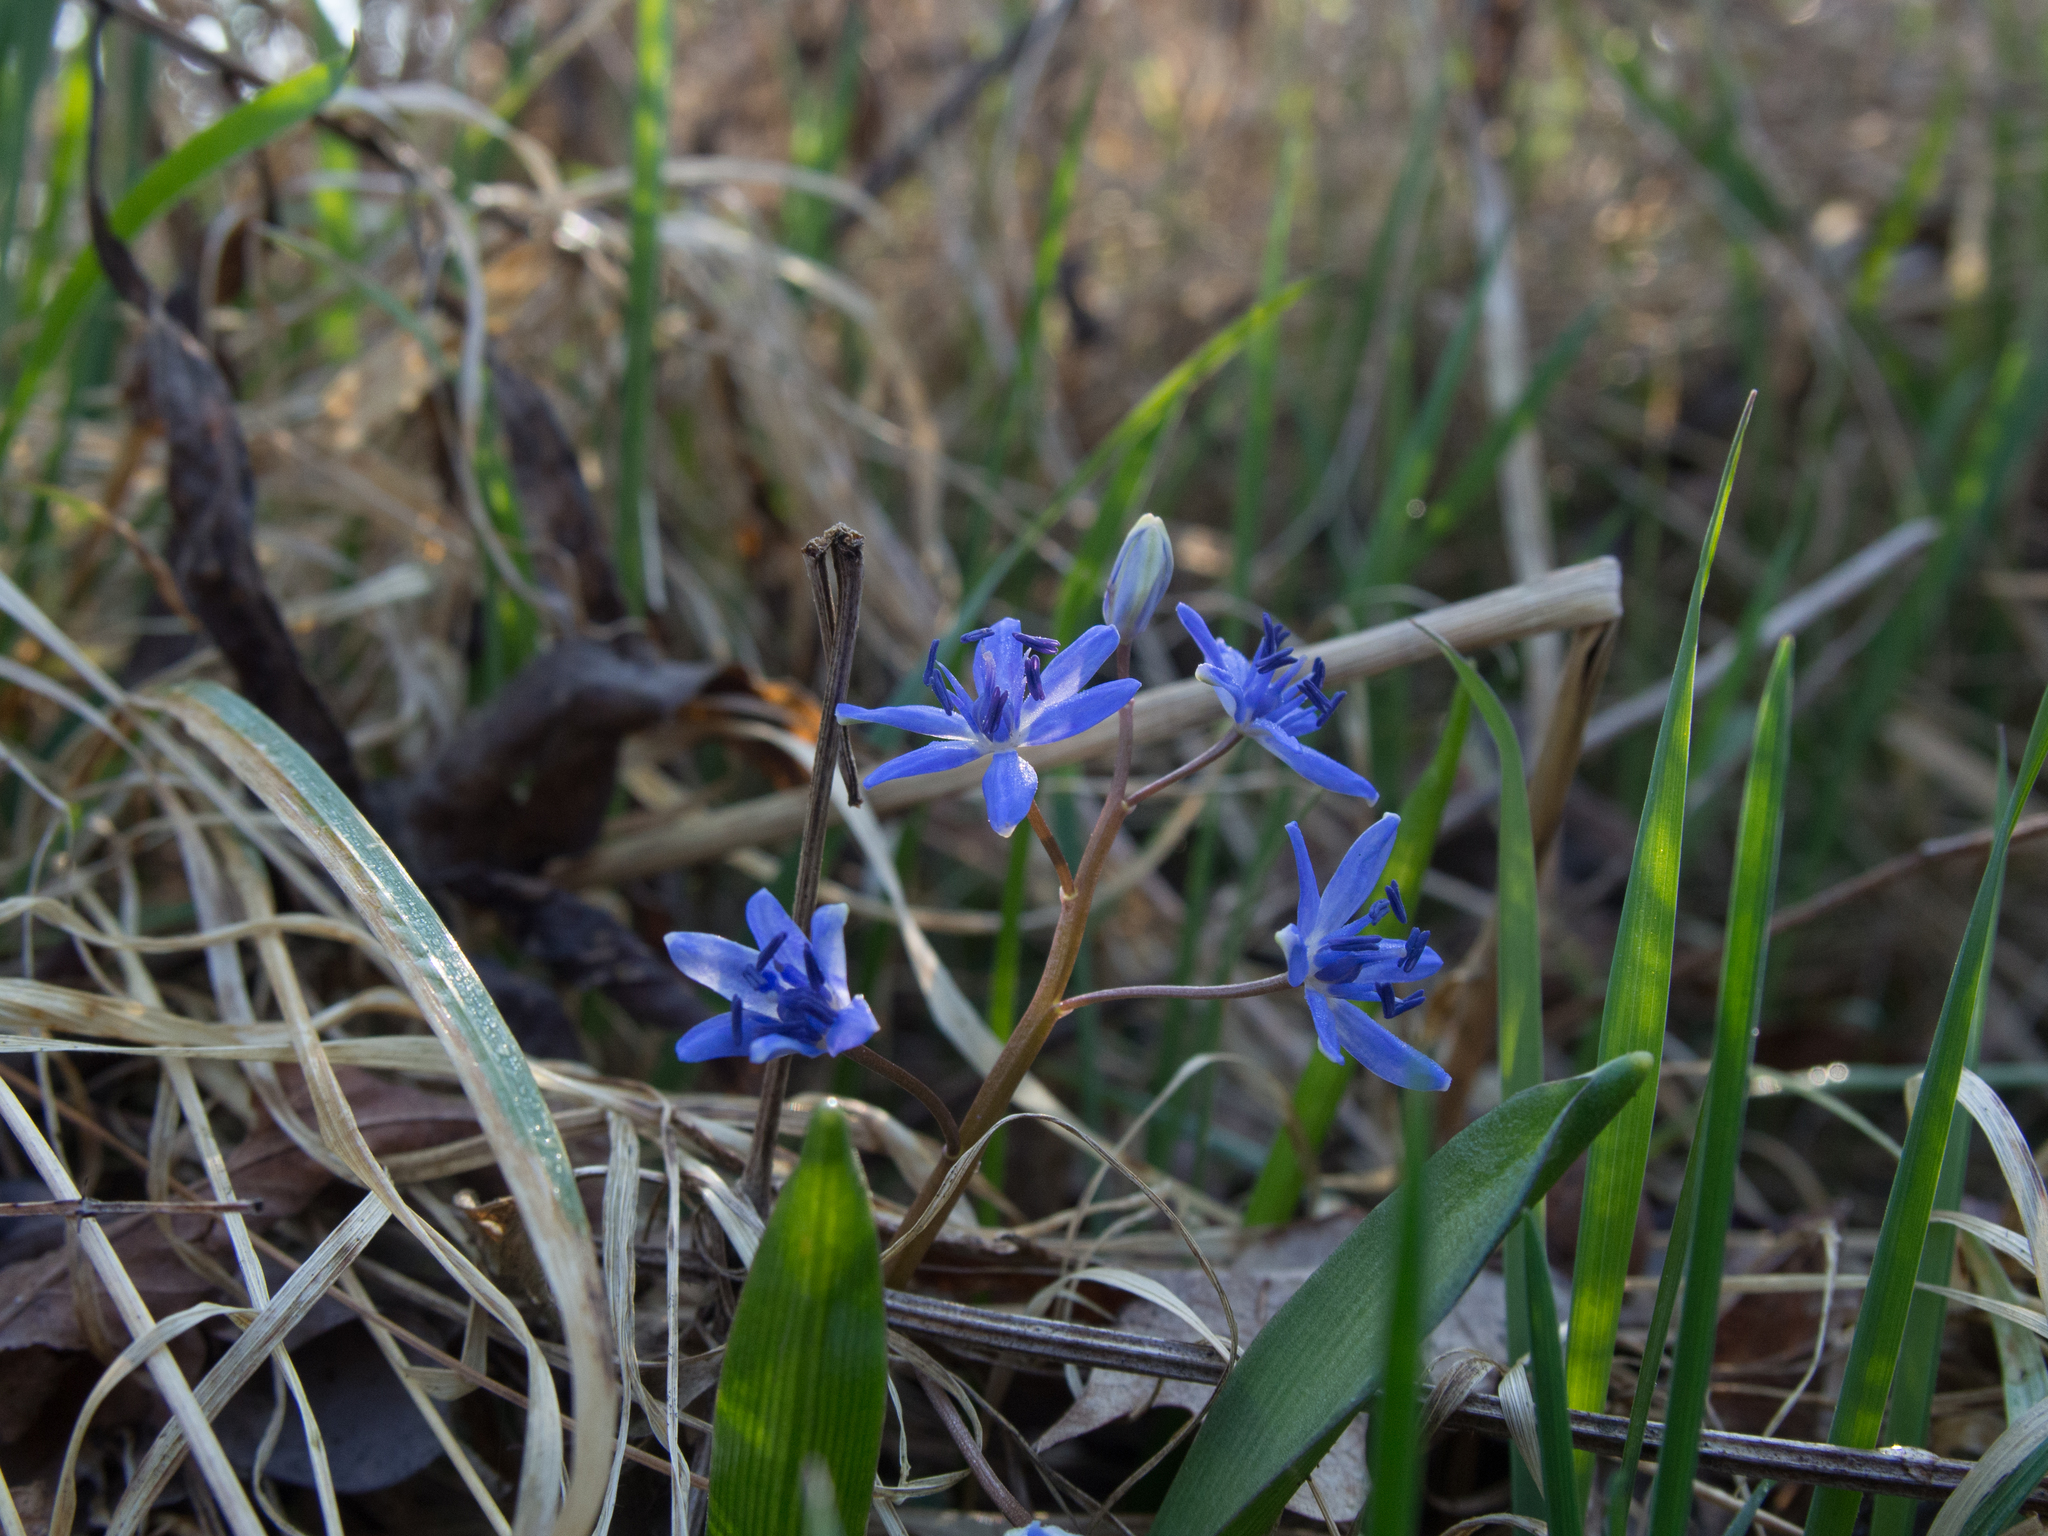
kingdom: Plantae
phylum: Tracheophyta
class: Liliopsida
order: Asparagales
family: Asparagaceae
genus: Scilla
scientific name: Scilla vindobonensis
